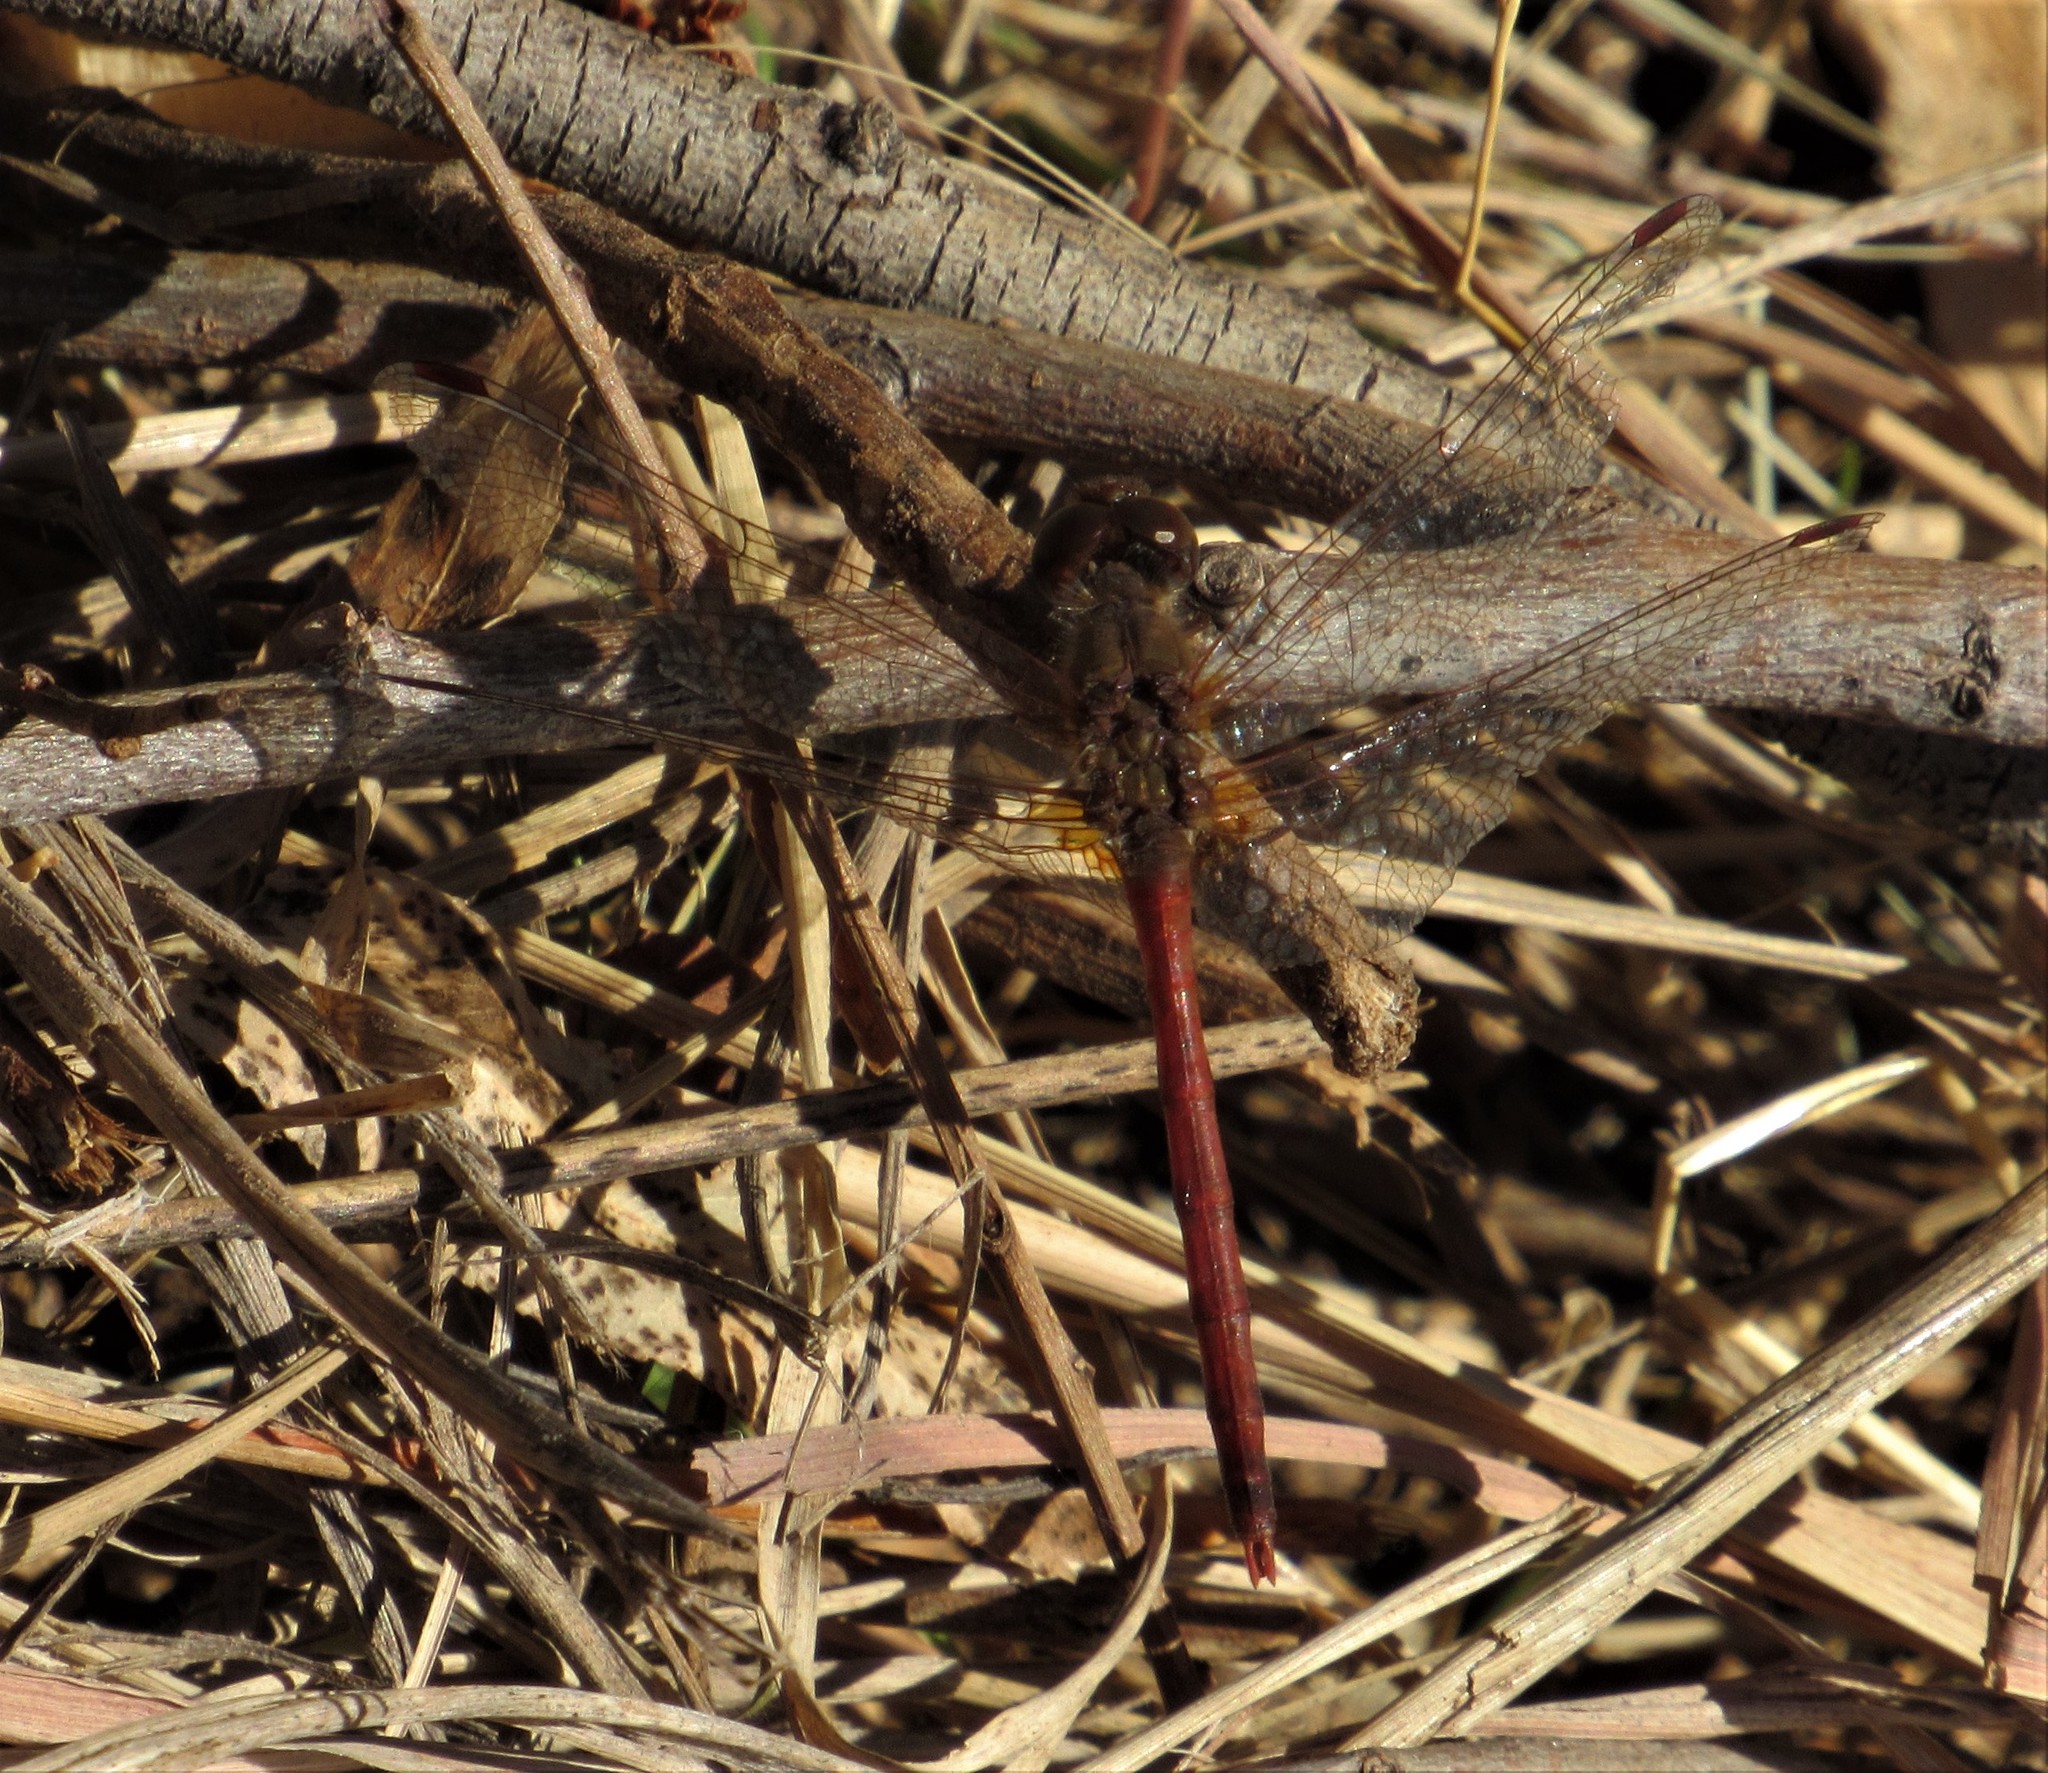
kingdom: Animalia
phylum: Arthropoda
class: Insecta
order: Odonata
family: Libellulidae
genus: Sympetrum
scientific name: Sympetrum vicinum
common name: Autumn meadowhawk
